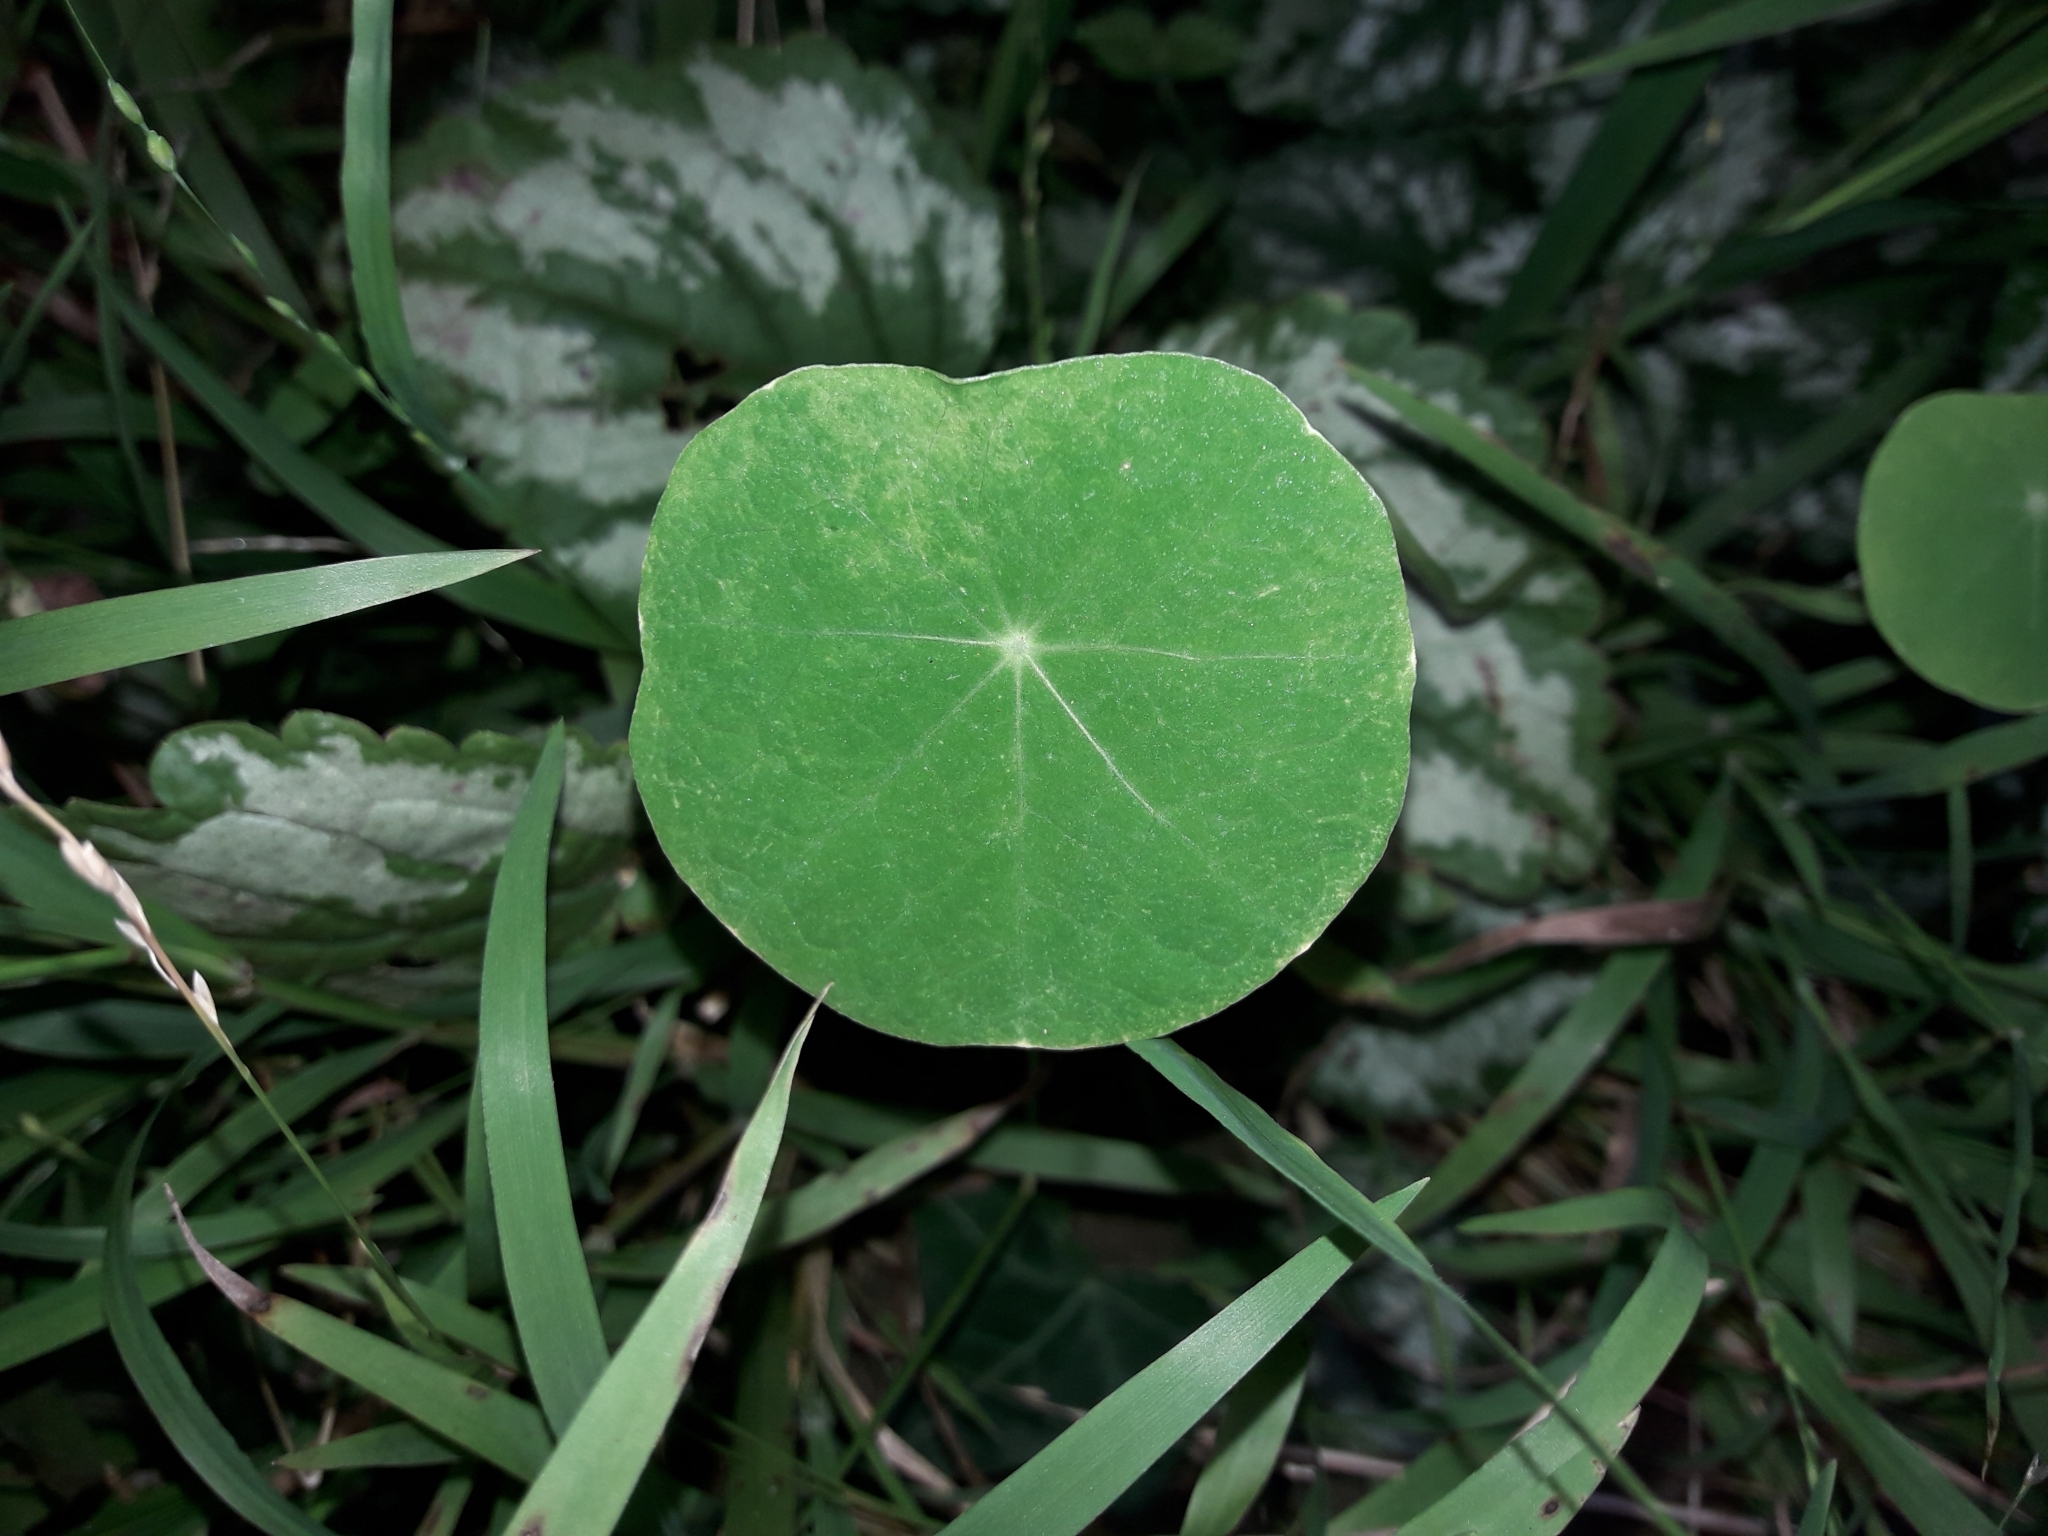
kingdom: Plantae
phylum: Tracheophyta
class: Magnoliopsida
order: Brassicales
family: Tropaeolaceae
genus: Tropaeolum
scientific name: Tropaeolum majus
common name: Nasturtium
